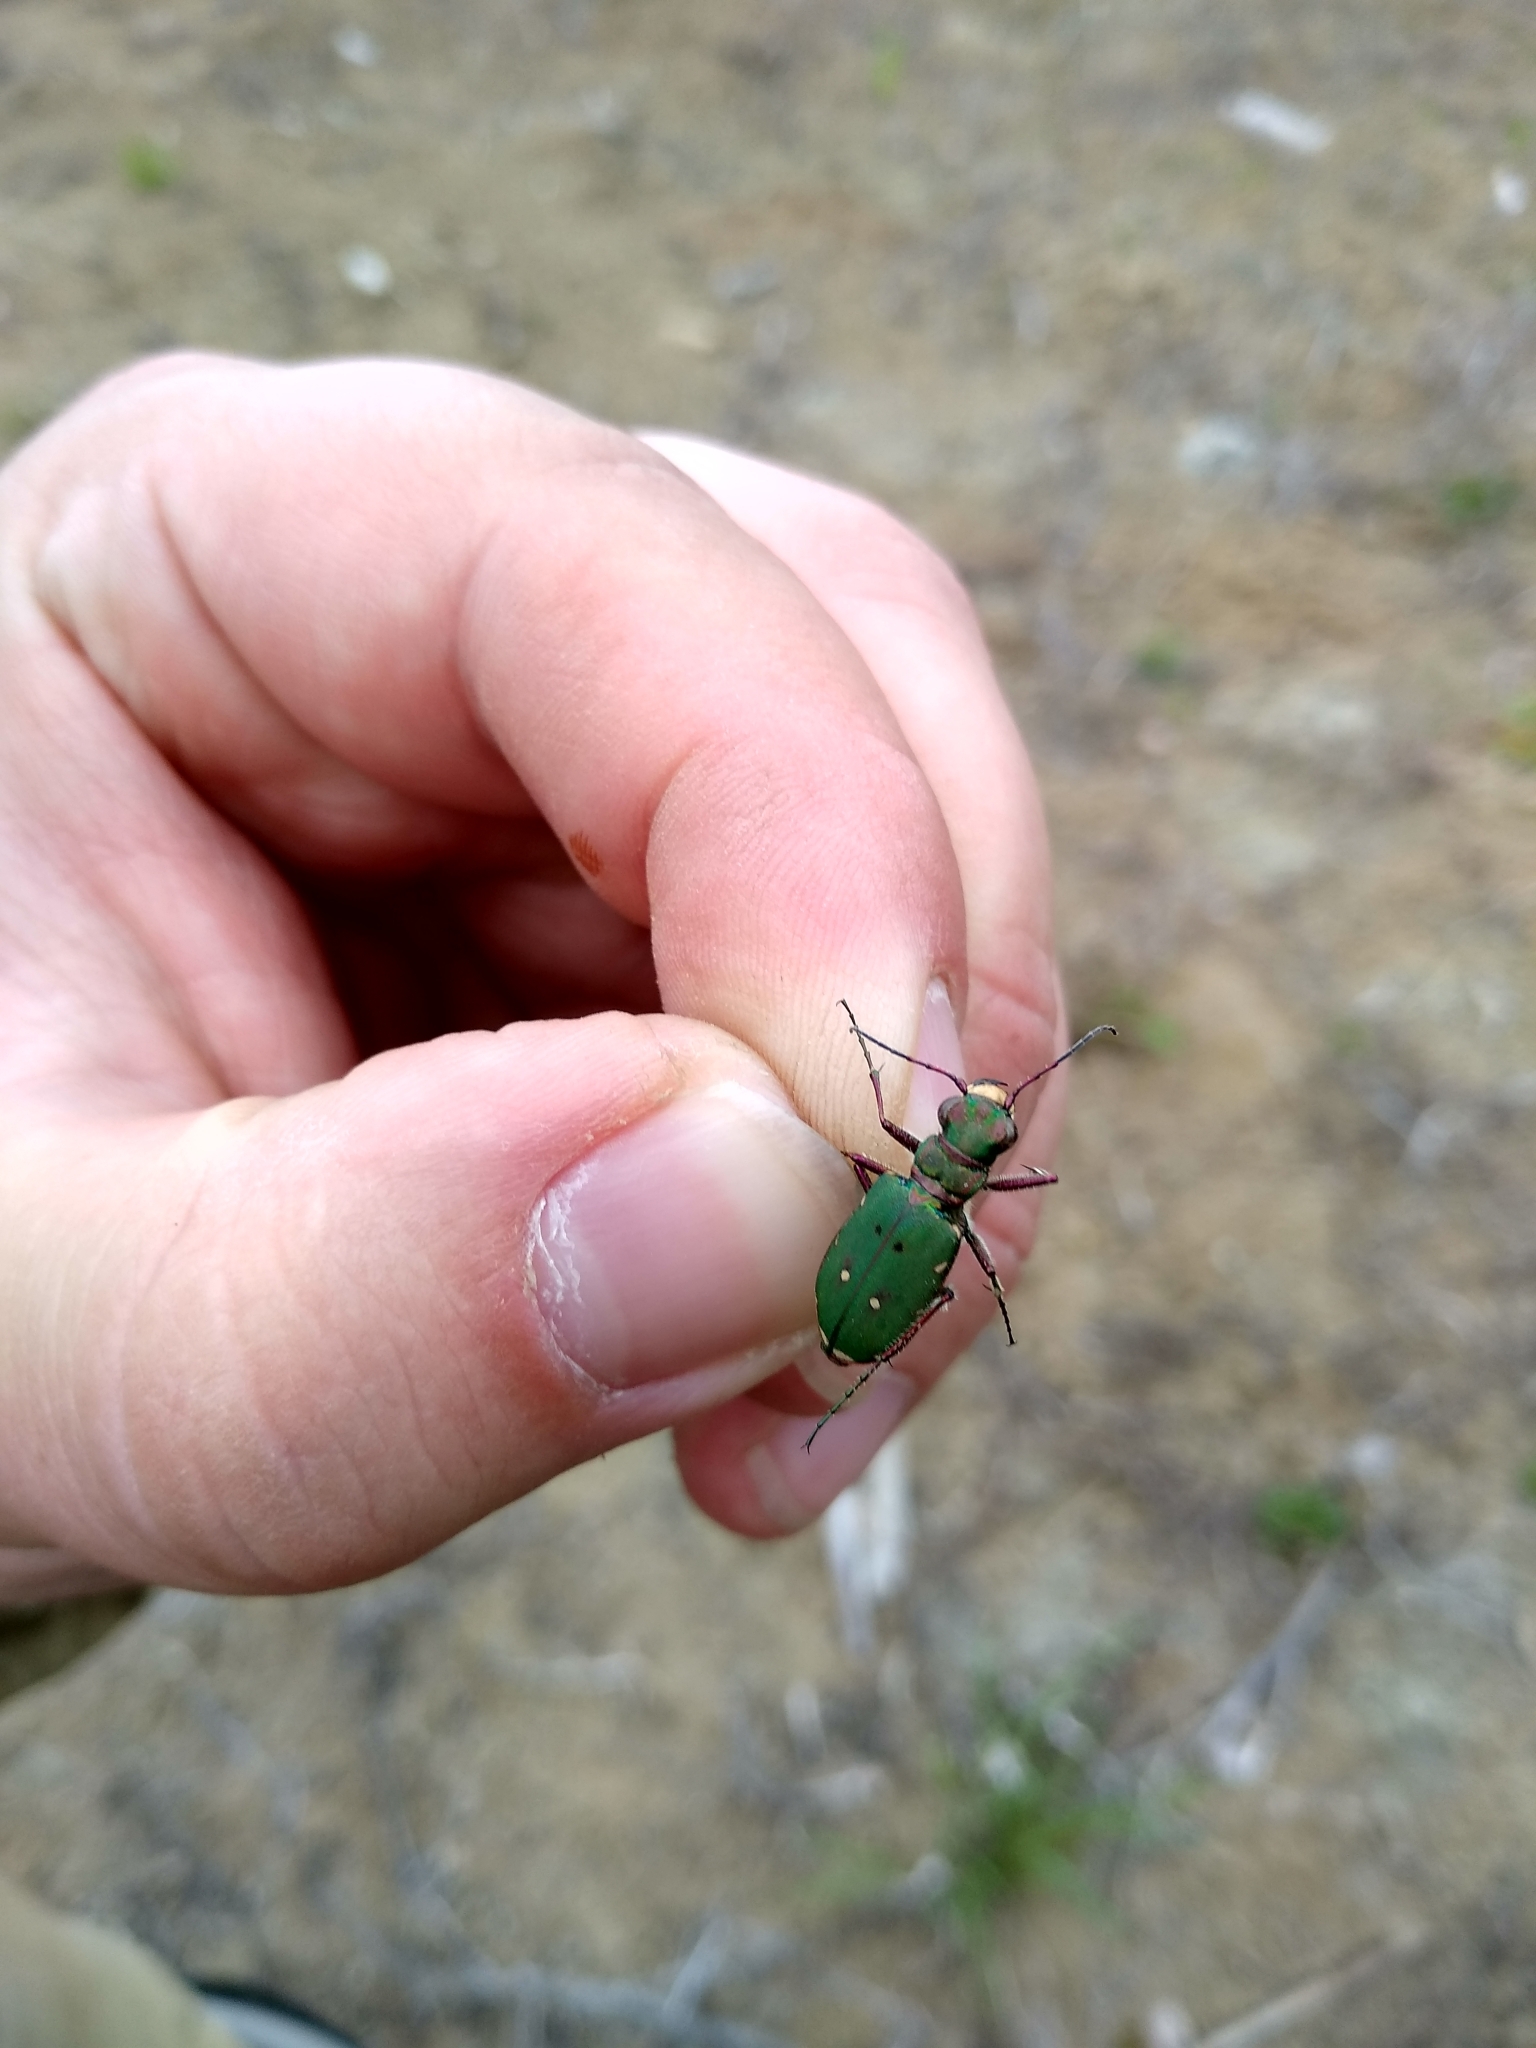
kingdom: Animalia
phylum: Arthropoda
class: Insecta
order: Coleoptera
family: Carabidae
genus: Cicindela
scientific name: Cicindela campestris
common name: Common tiger beetle
